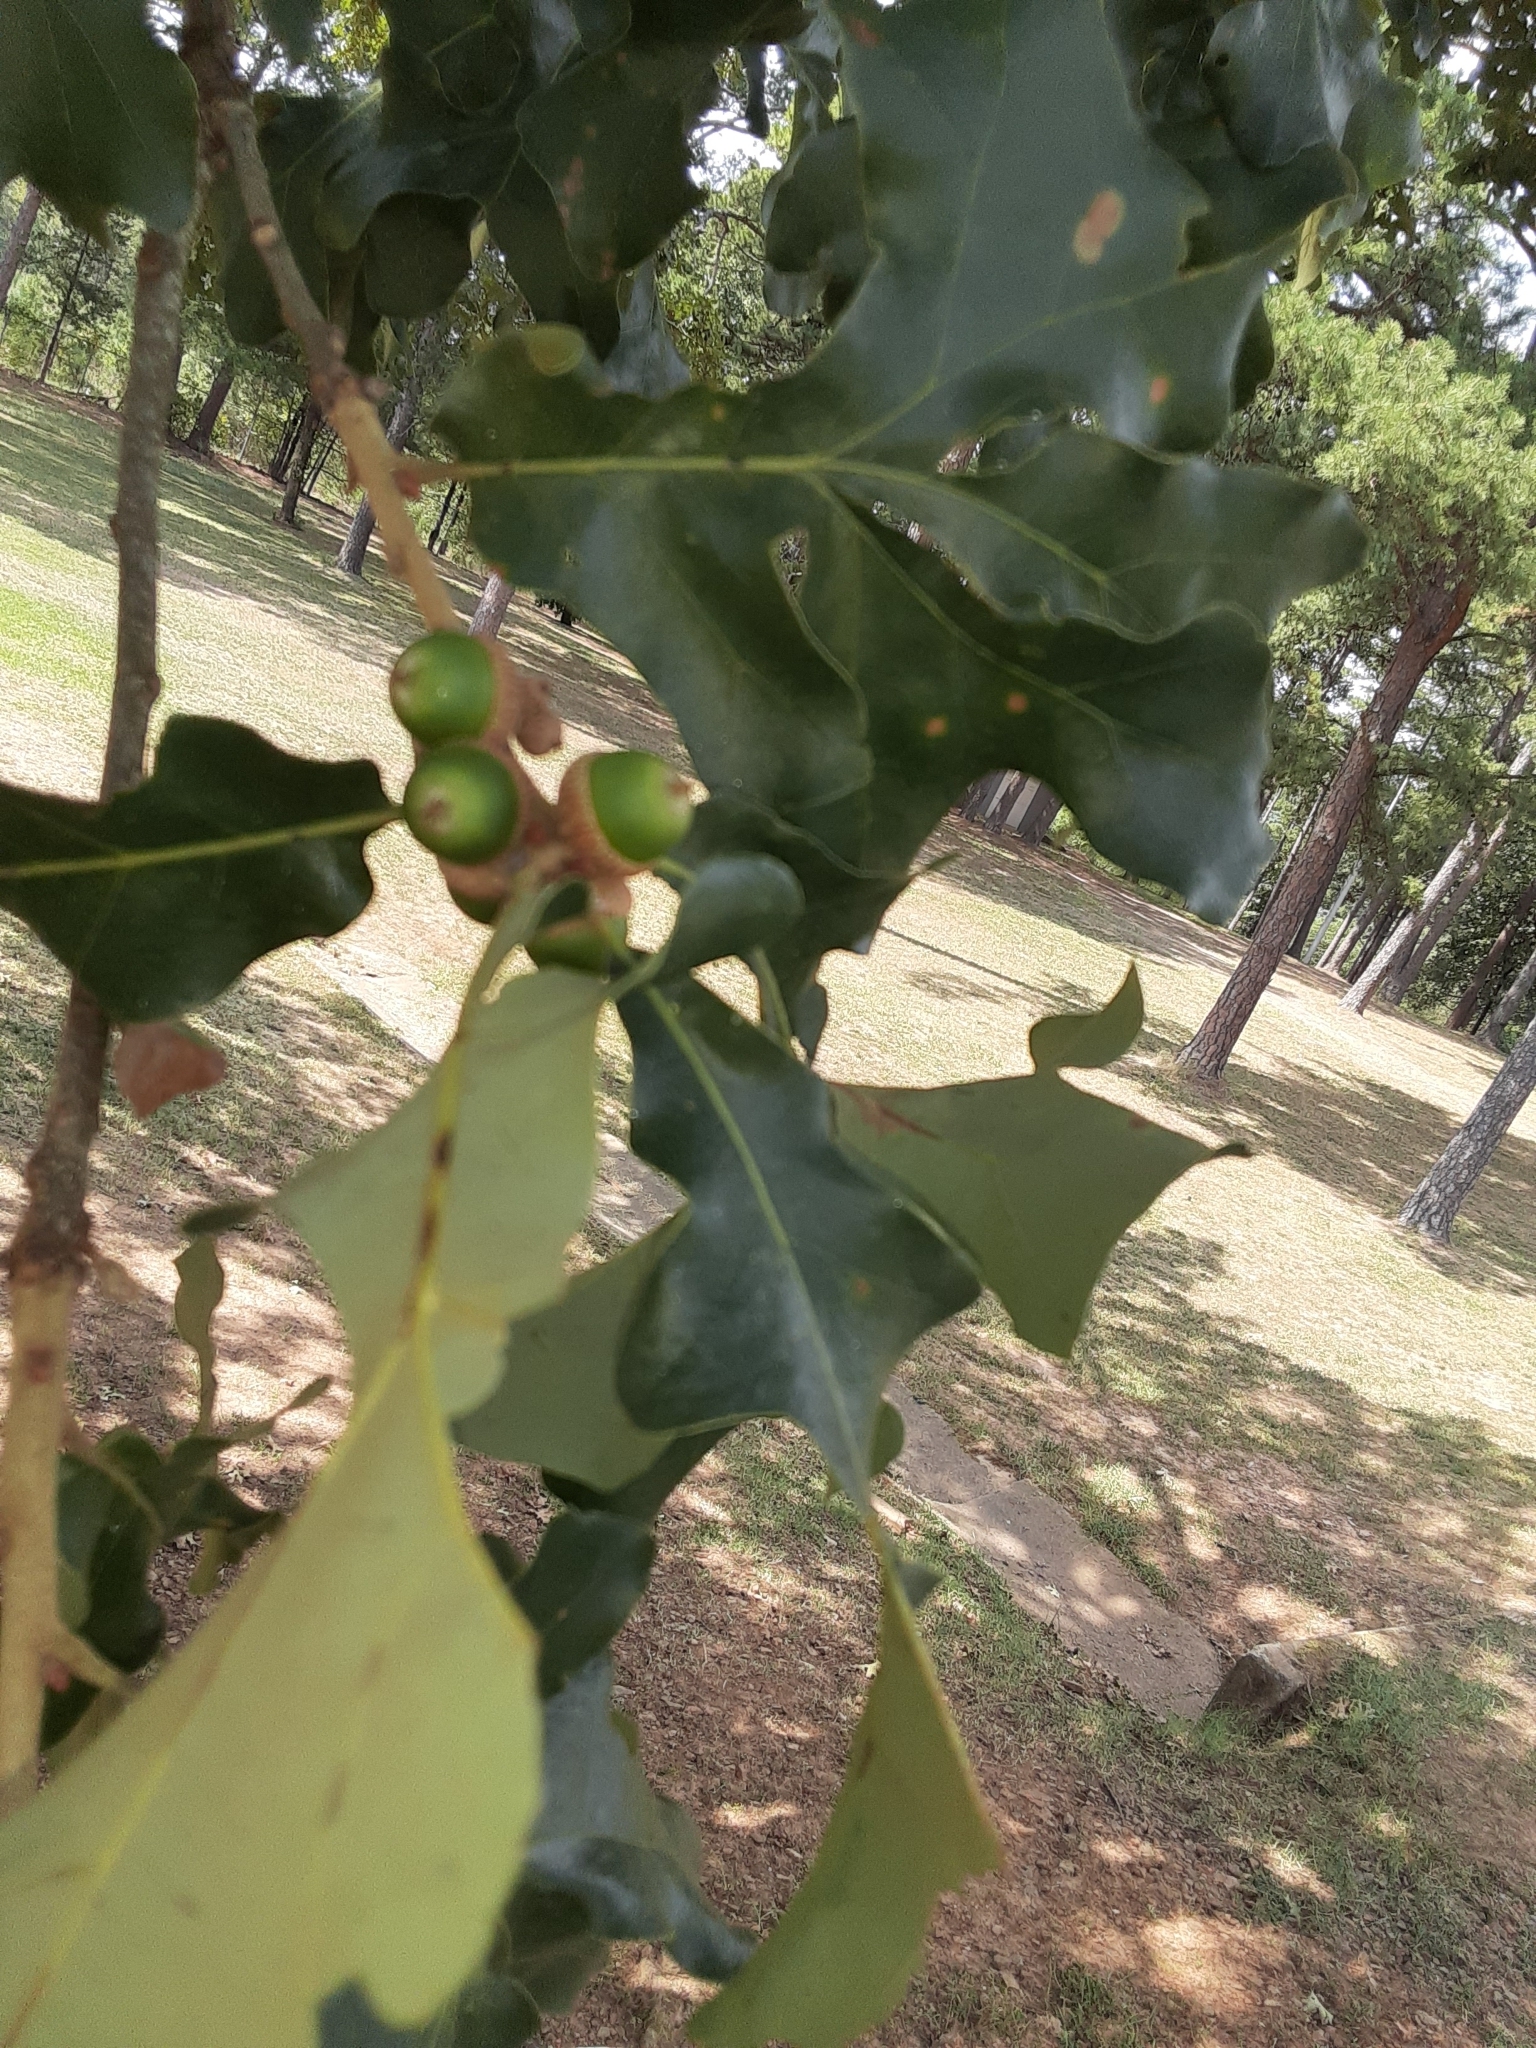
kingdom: Plantae
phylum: Tracheophyta
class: Magnoliopsida
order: Fagales
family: Fagaceae
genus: Quercus
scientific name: Quercus stellata
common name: Post oak
